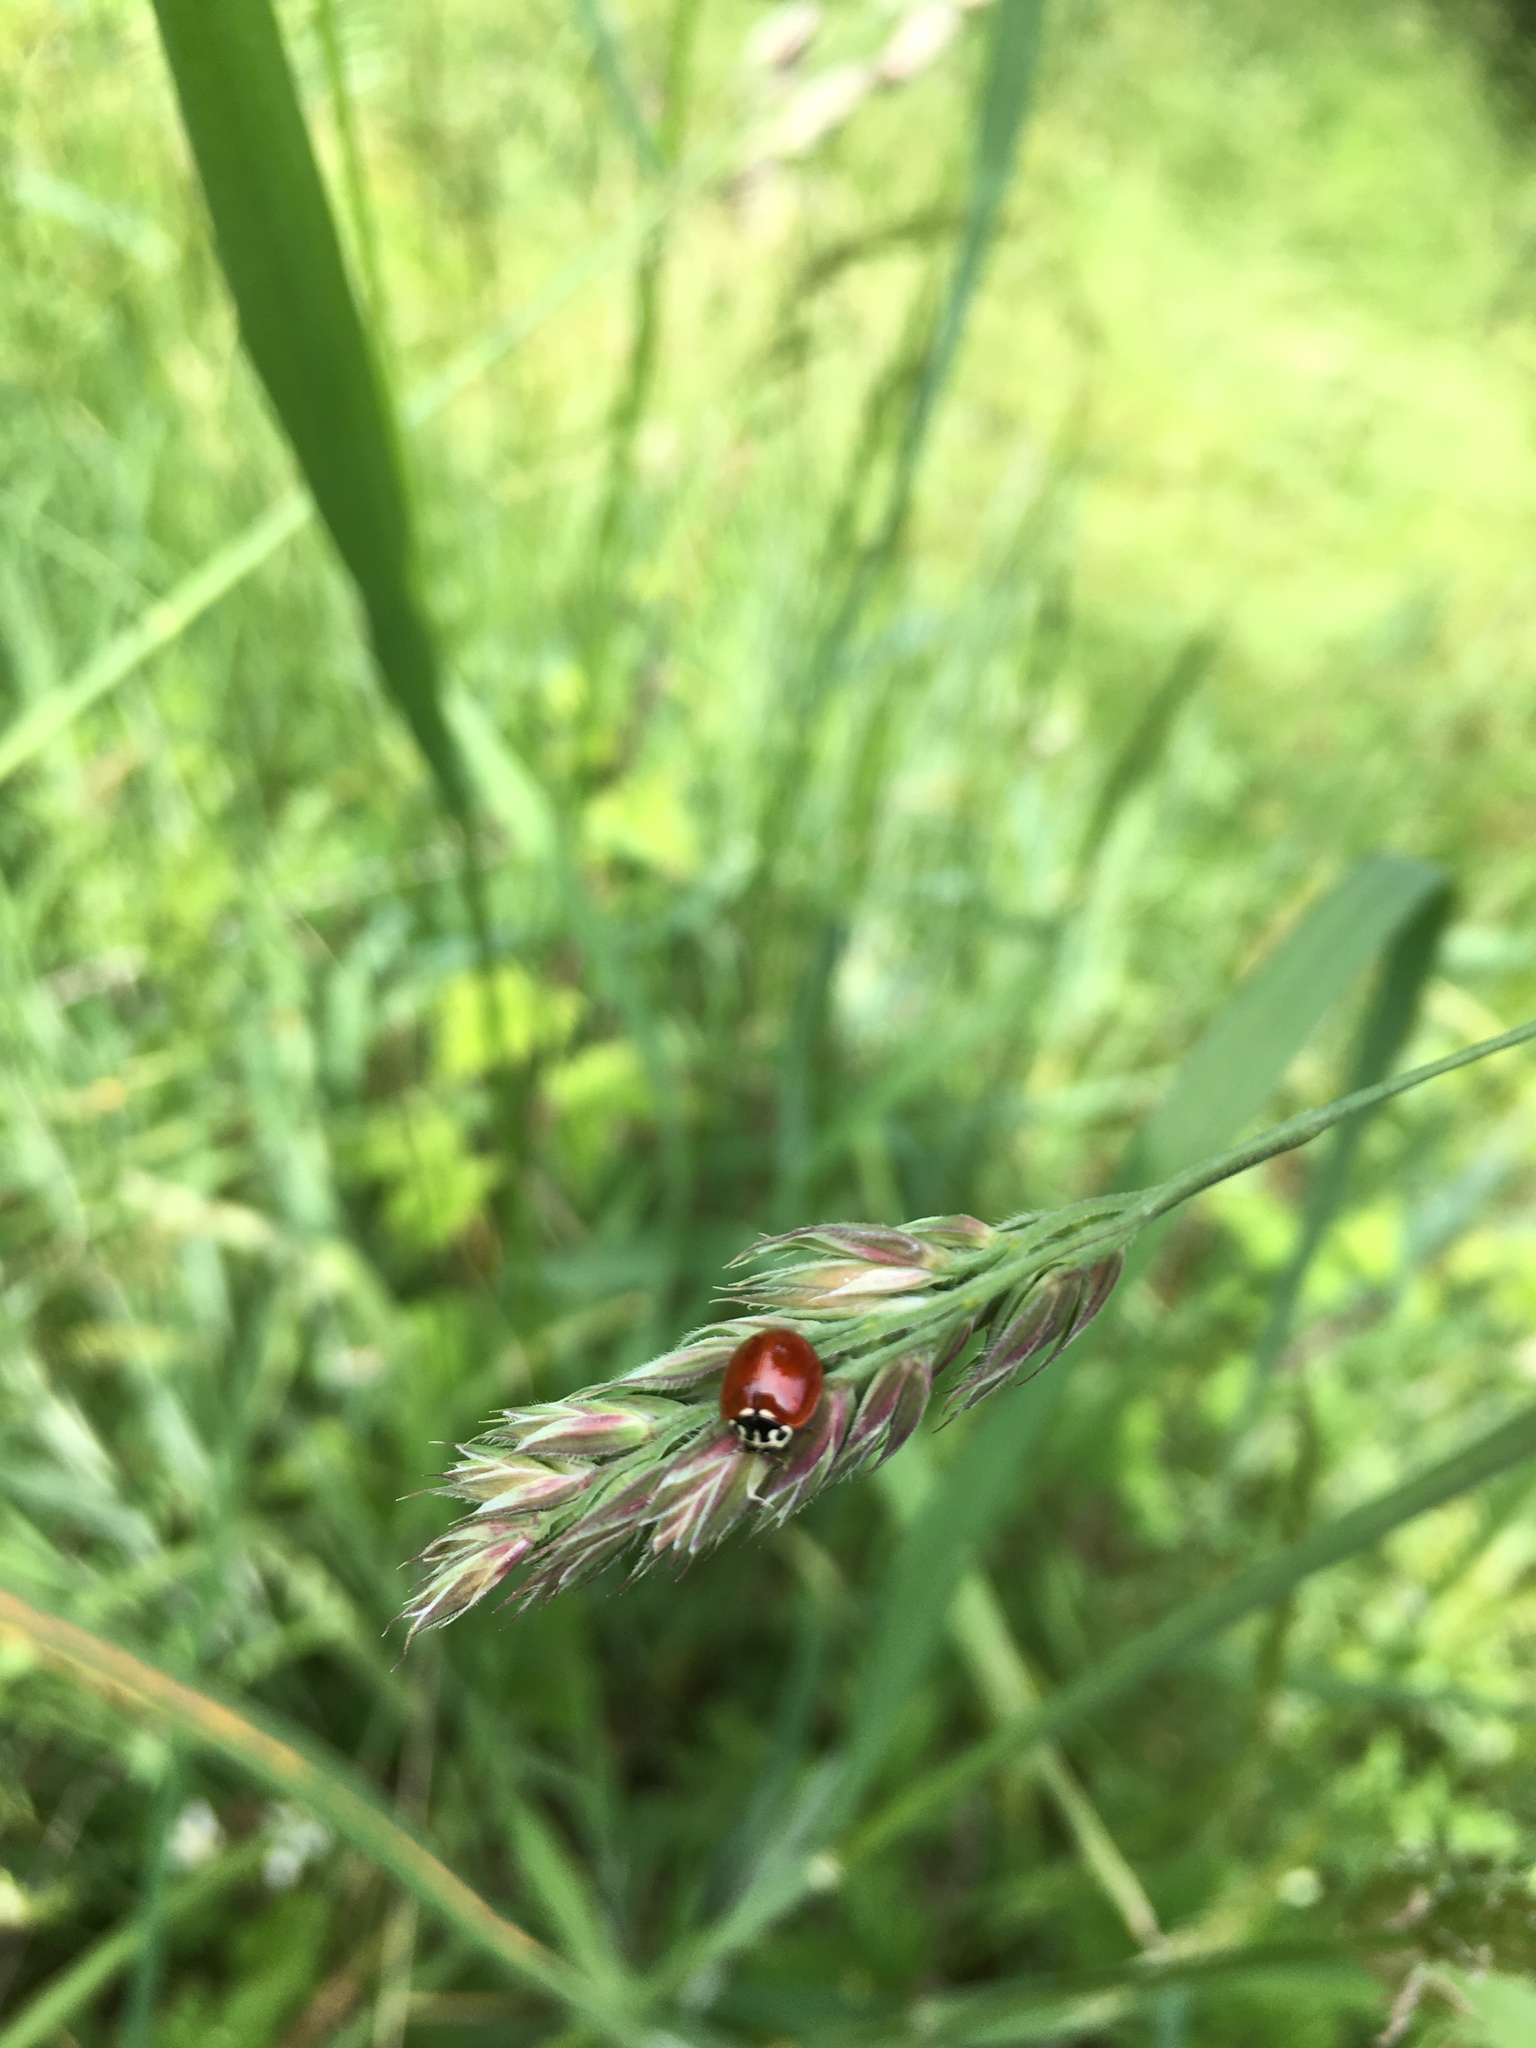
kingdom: Animalia
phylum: Arthropoda
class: Insecta
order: Coleoptera
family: Coccinellidae
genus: Cycloneda
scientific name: Cycloneda polita
